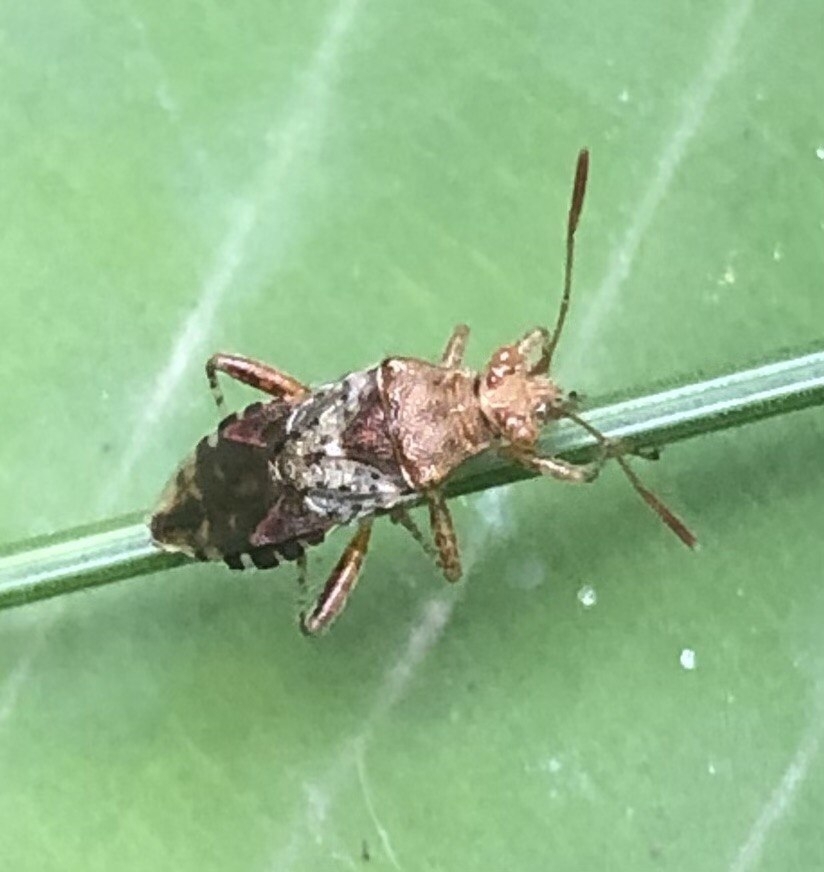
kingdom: Animalia
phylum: Arthropoda
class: Insecta
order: Hemiptera
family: Rhopalidae
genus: Rhopalus
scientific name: Rhopalus subrufus
